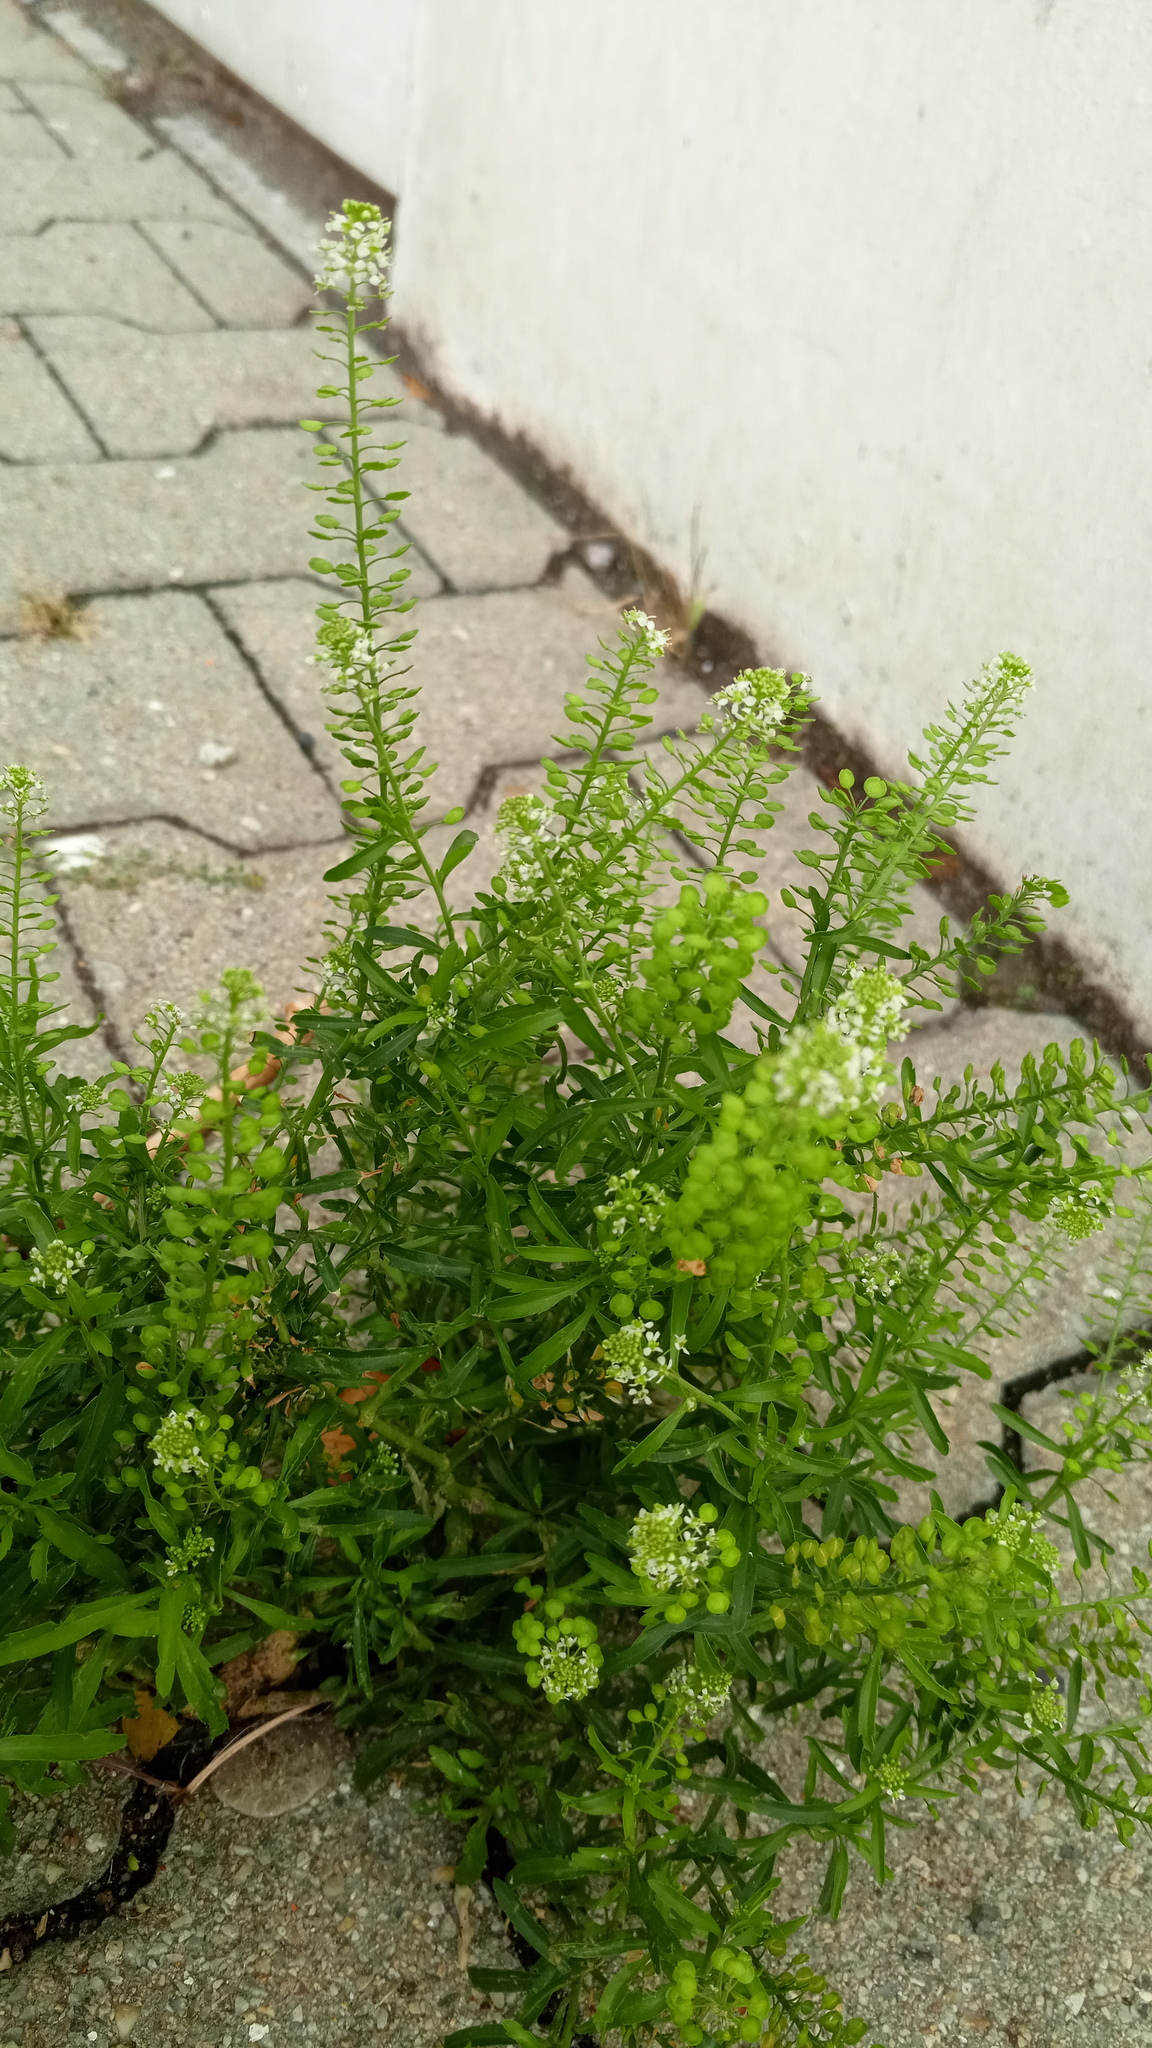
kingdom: Plantae
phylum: Tracheophyta
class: Magnoliopsida
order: Brassicales
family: Brassicaceae
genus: Lepidium
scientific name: Lepidium virginicum
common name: Least pepperwort
